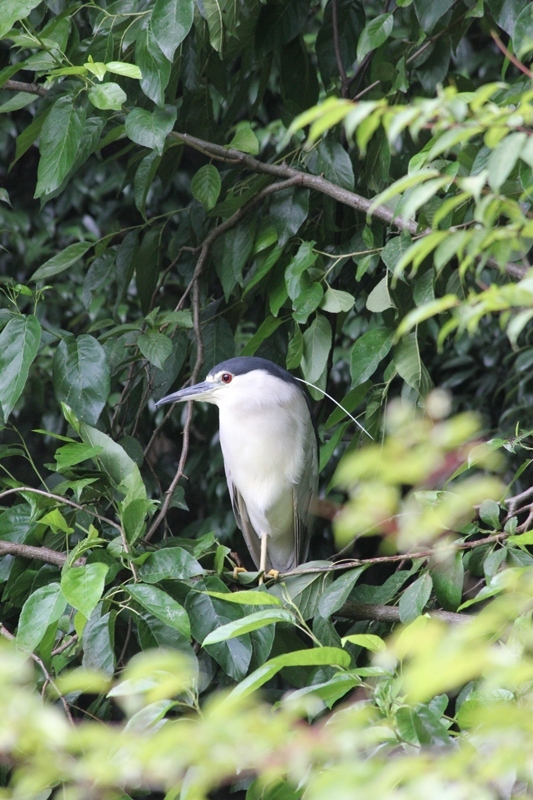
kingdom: Animalia
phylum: Chordata
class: Aves
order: Pelecaniformes
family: Ardeidae
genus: Nycticorax
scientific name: Nycticorax nycticorax
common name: Black-crowned night heron
